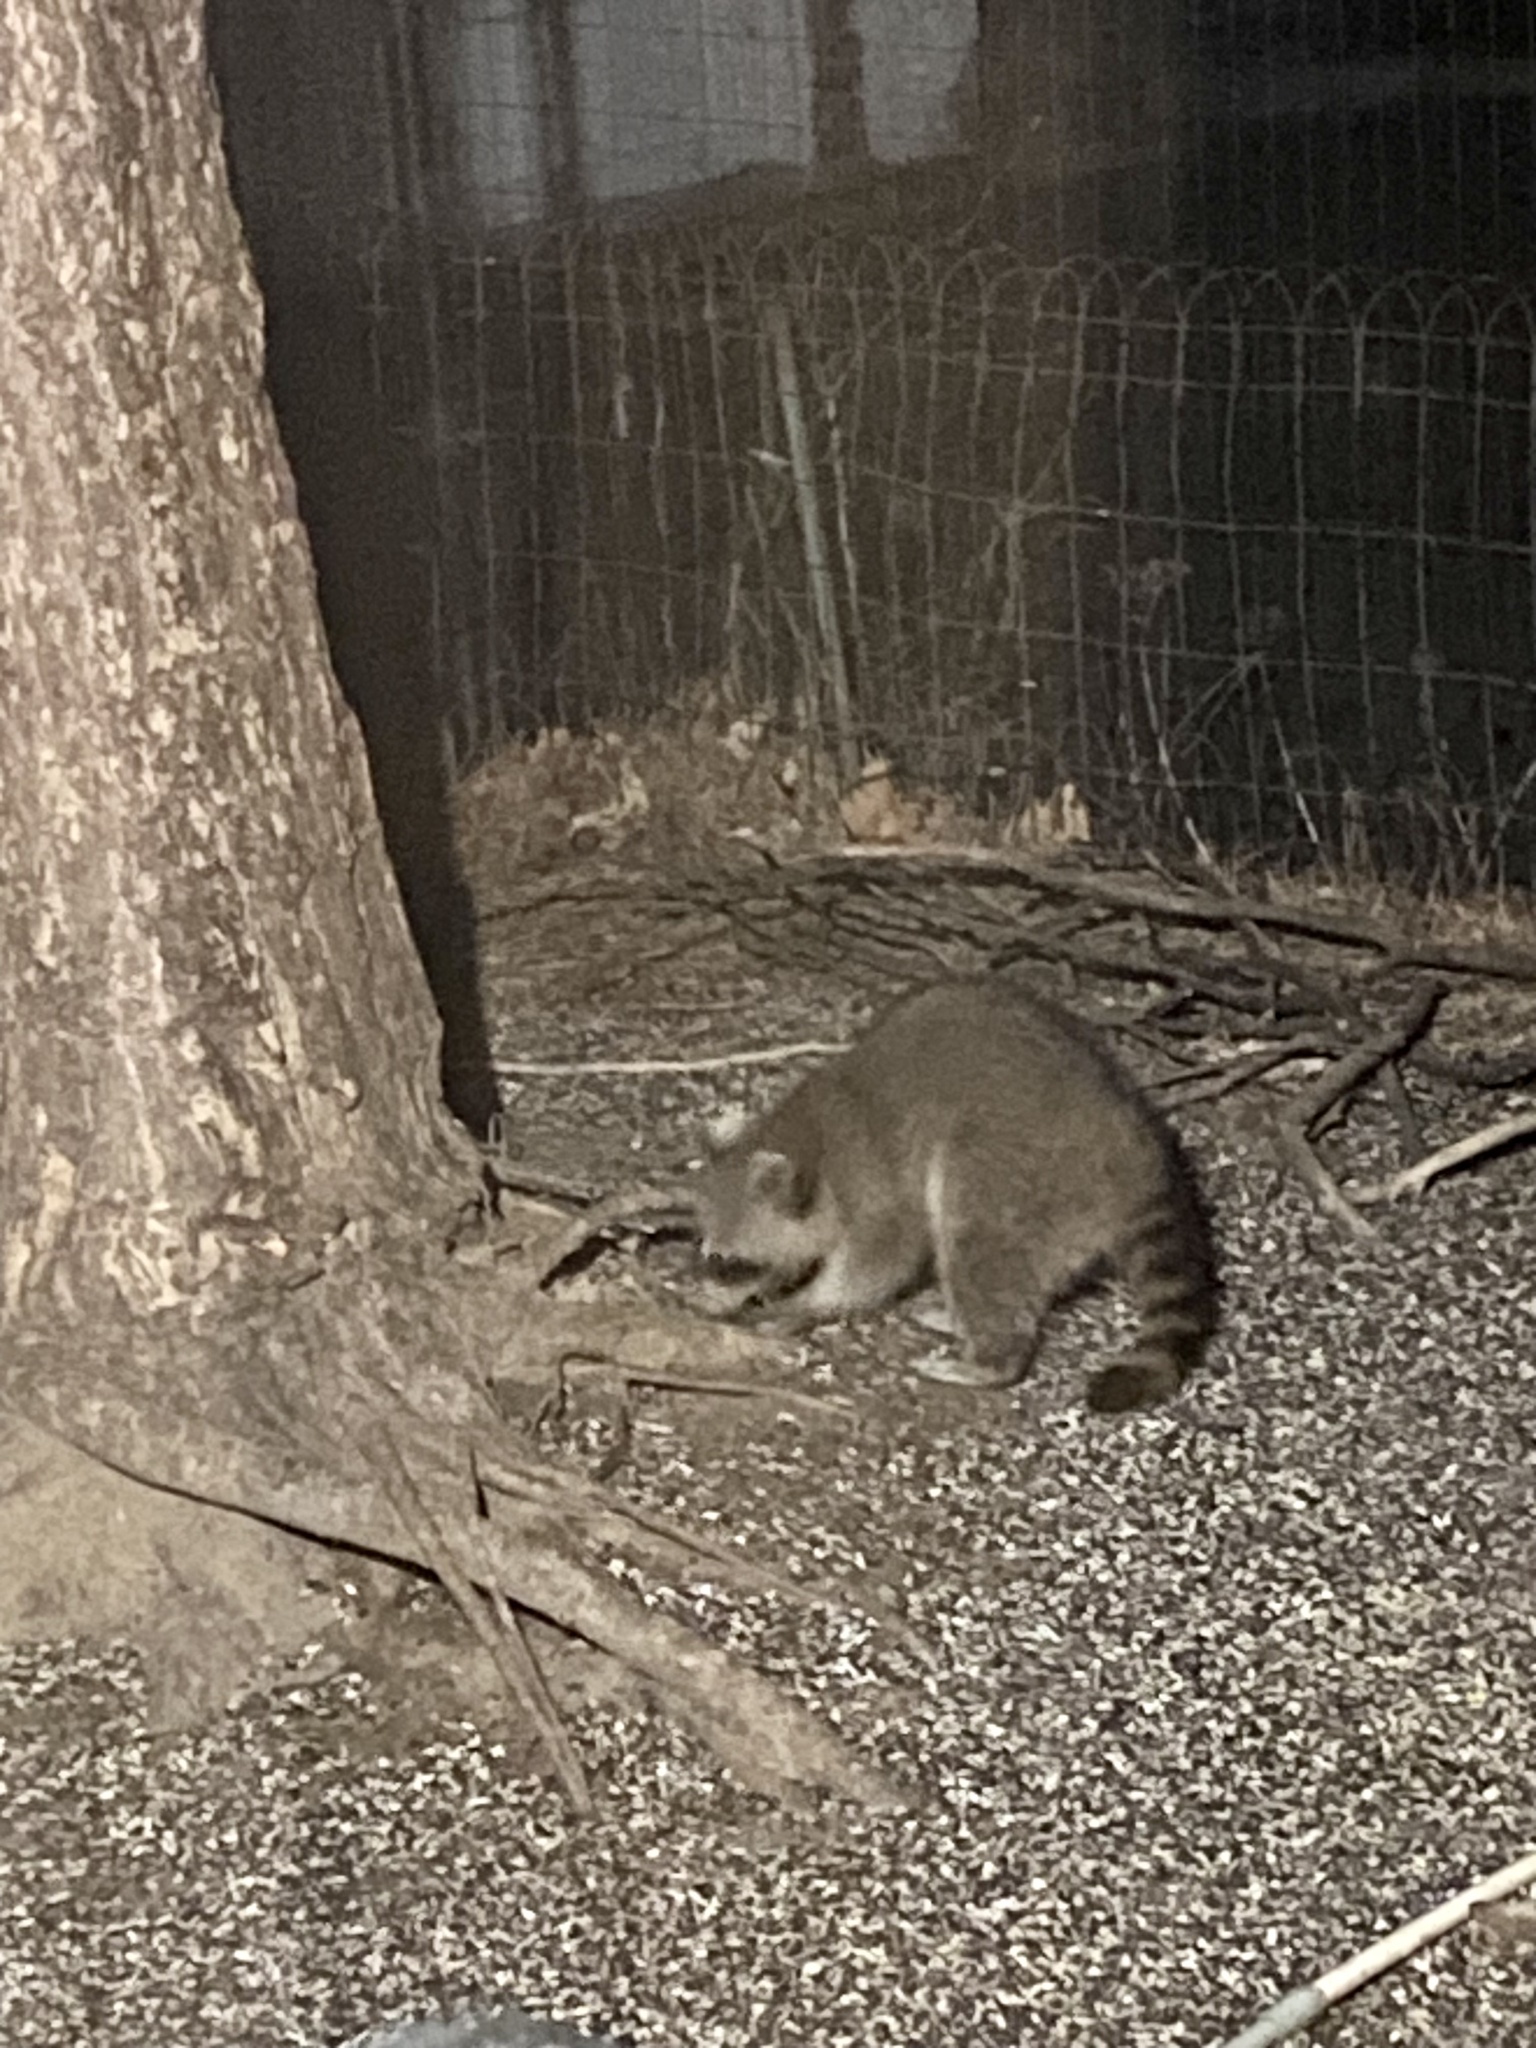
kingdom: Animalia
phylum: Chordata
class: Mammalia
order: Carnivora
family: Procyonidae
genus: Procyon
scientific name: Procyon lotor
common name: Raccoon
